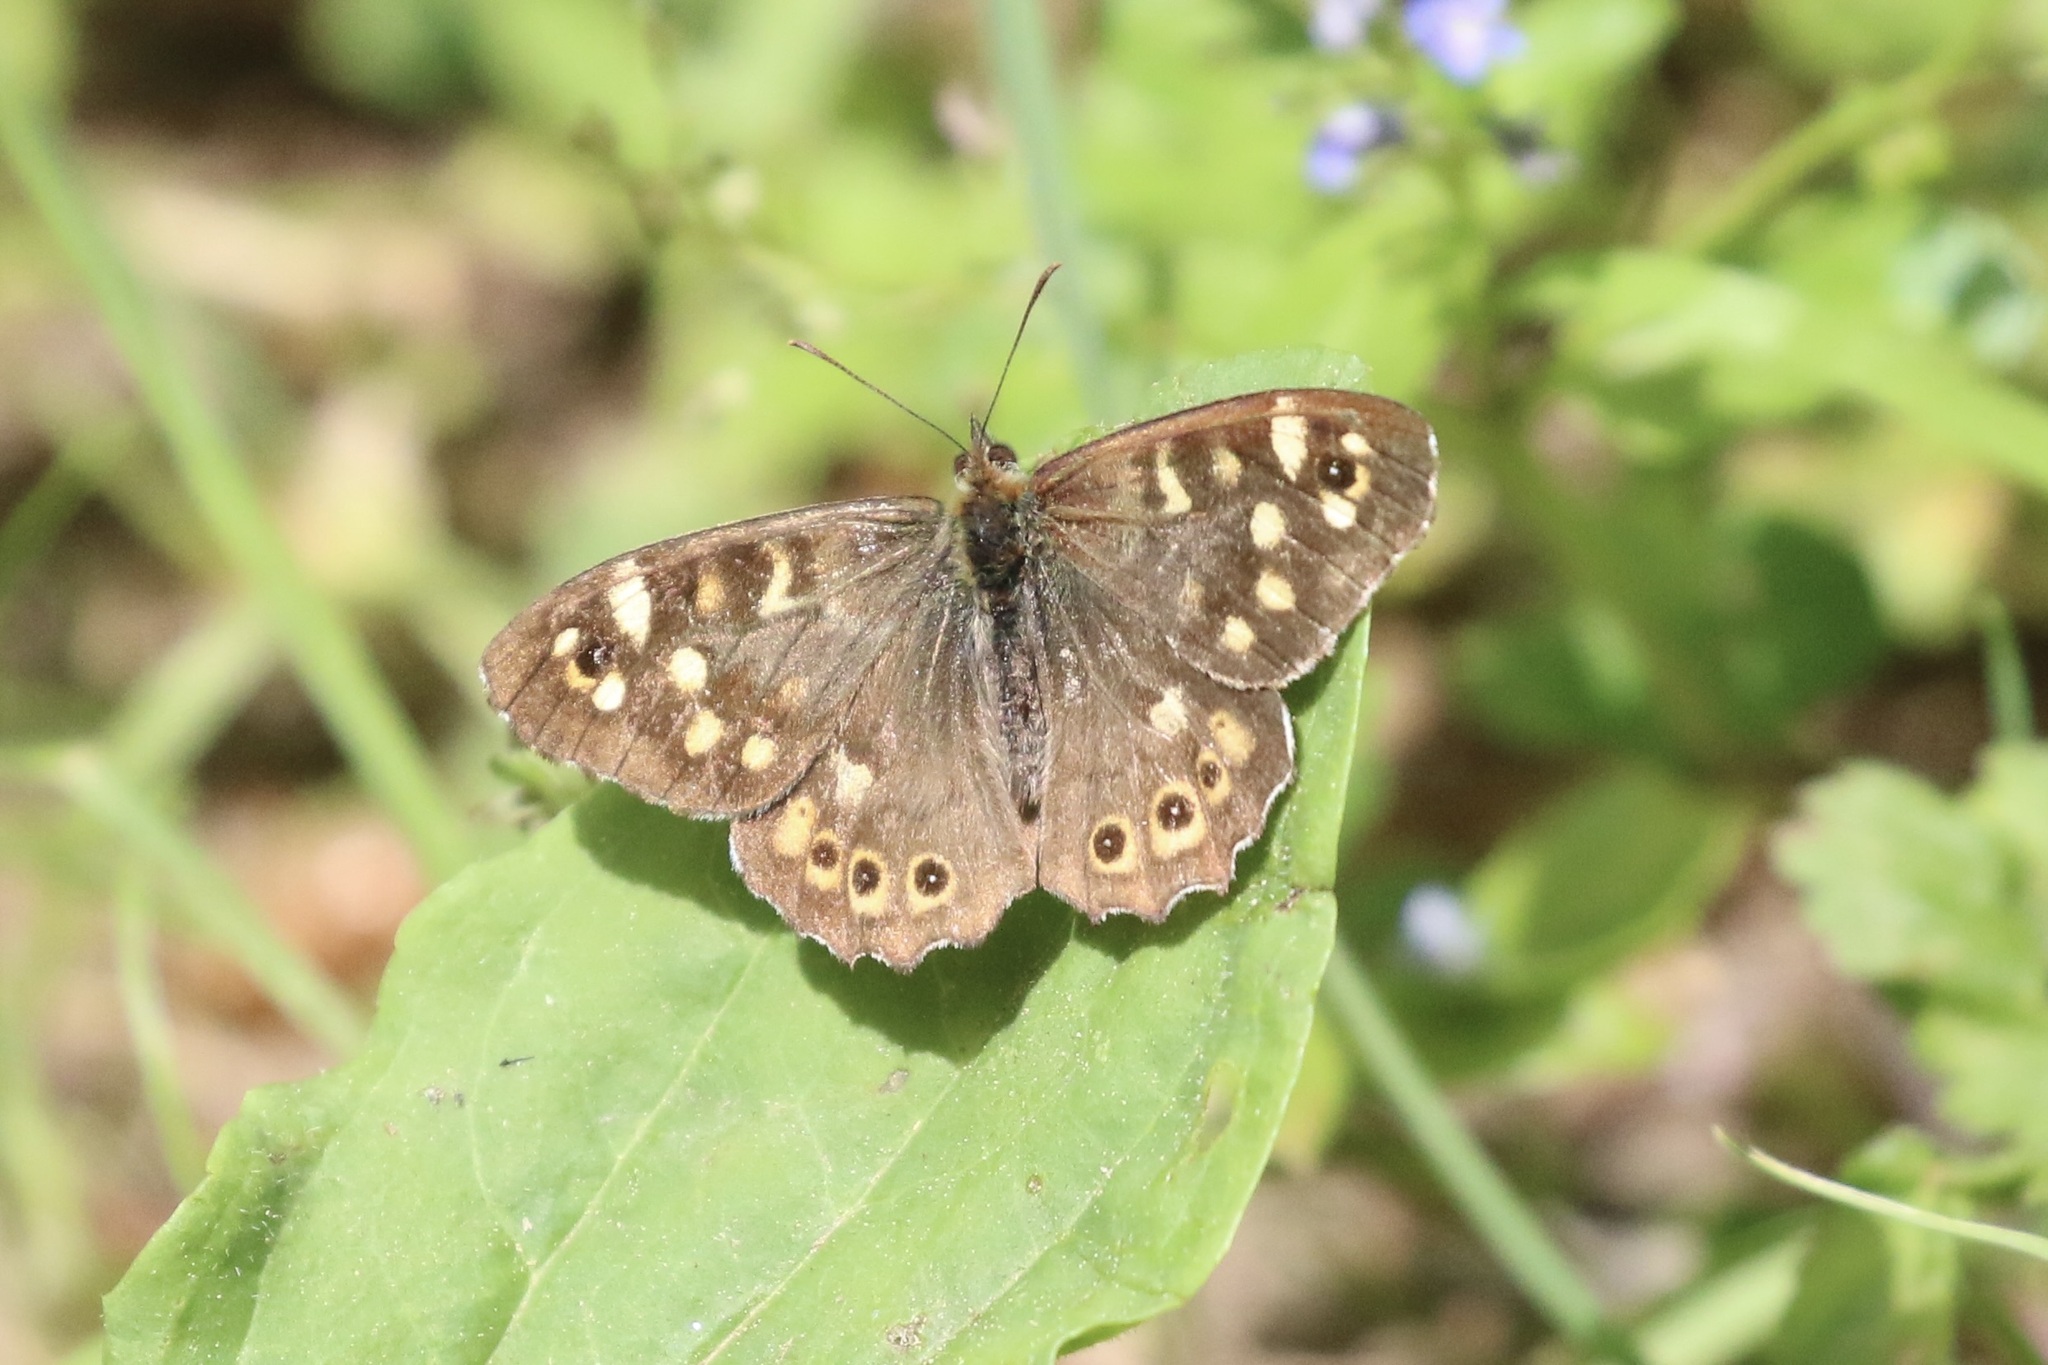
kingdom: Animalia
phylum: Arthropoda
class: Insecta
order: Lepidoptera
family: Nymphalidae
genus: Pararge
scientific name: Pararge aegeria
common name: Speckled wood
